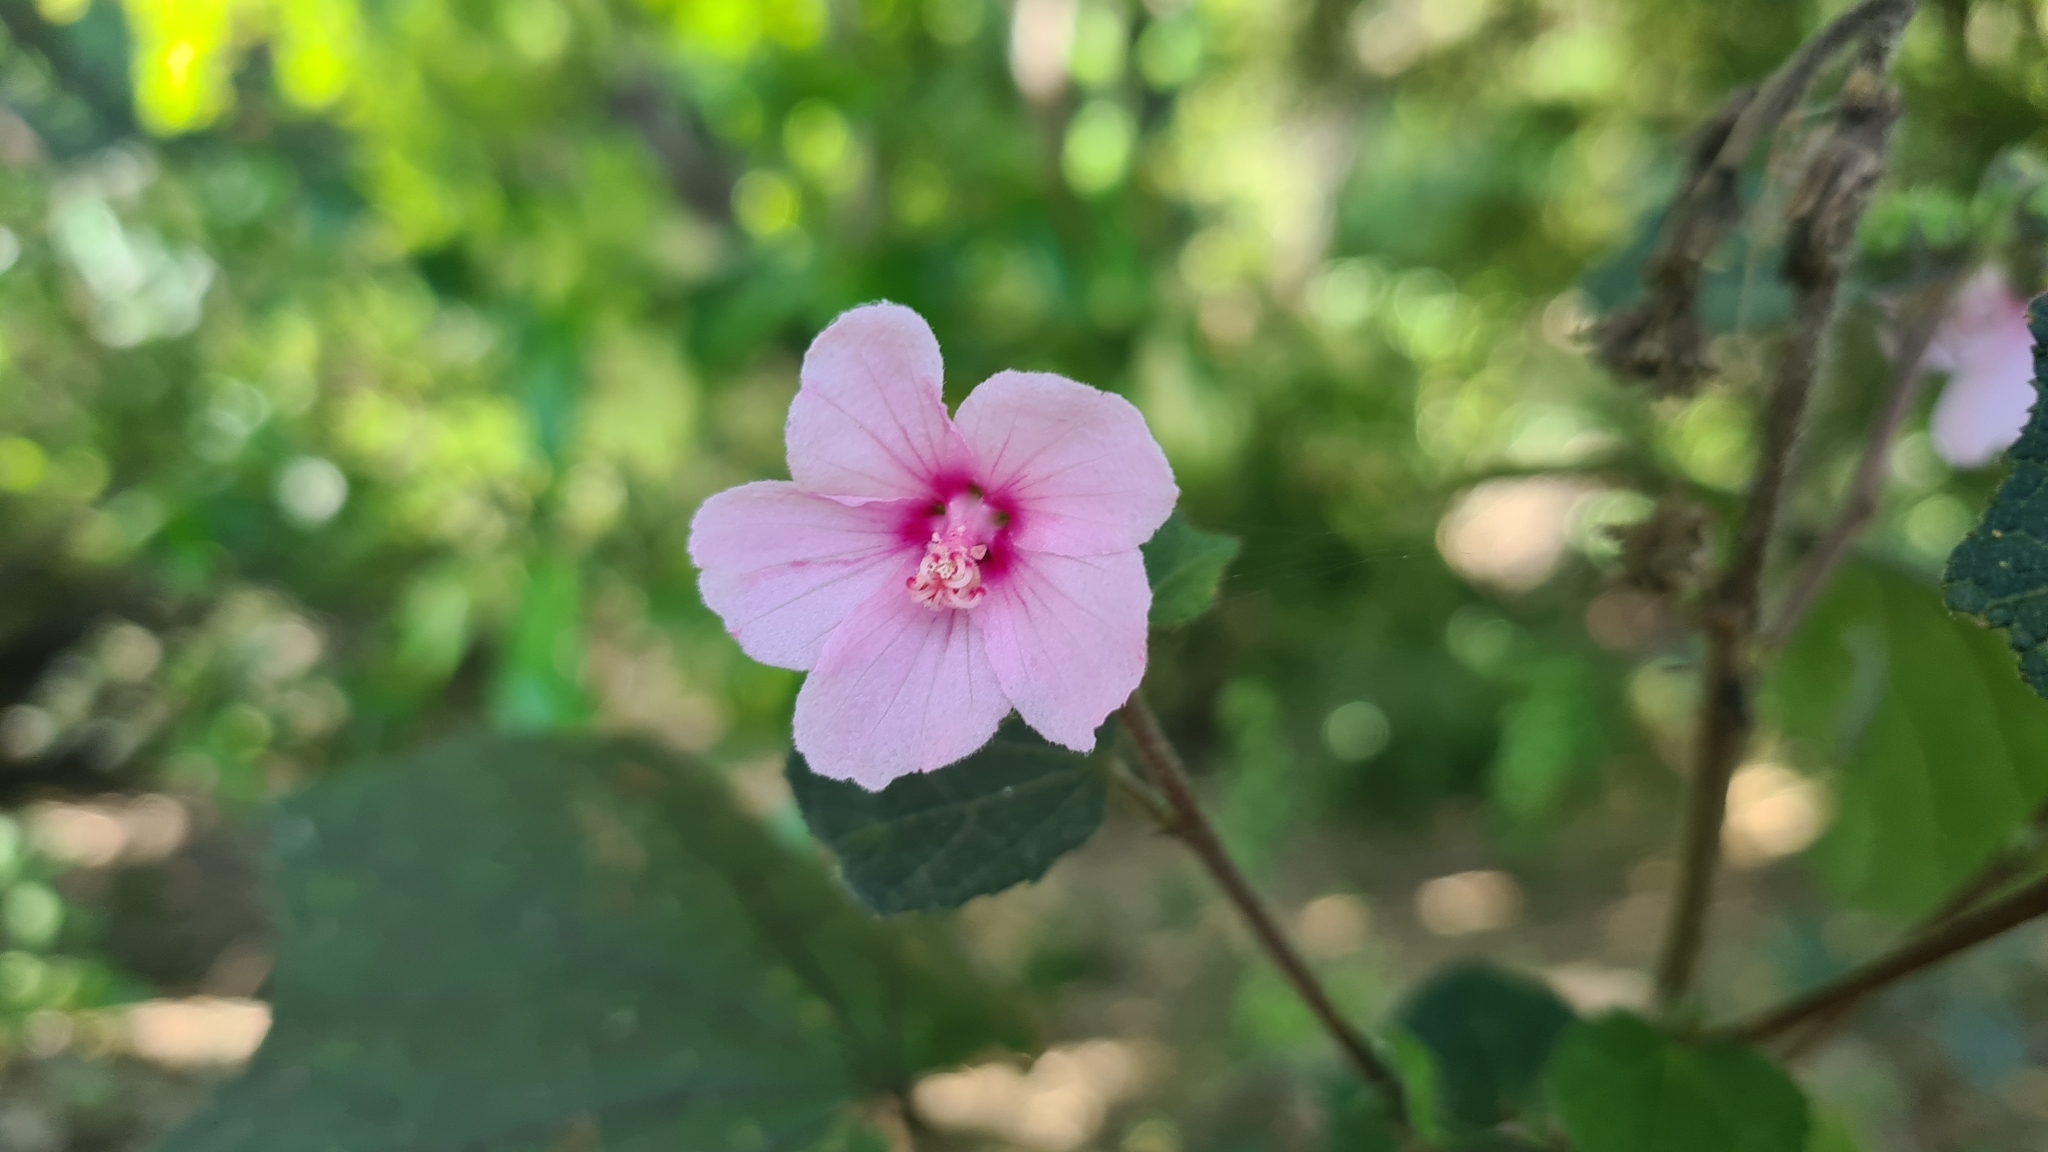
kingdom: Plantae
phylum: Tracheophyta
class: Magnoliopsida
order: Malvales
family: Malvaceae
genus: Urena
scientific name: Urena lobata
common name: Caesarweed
